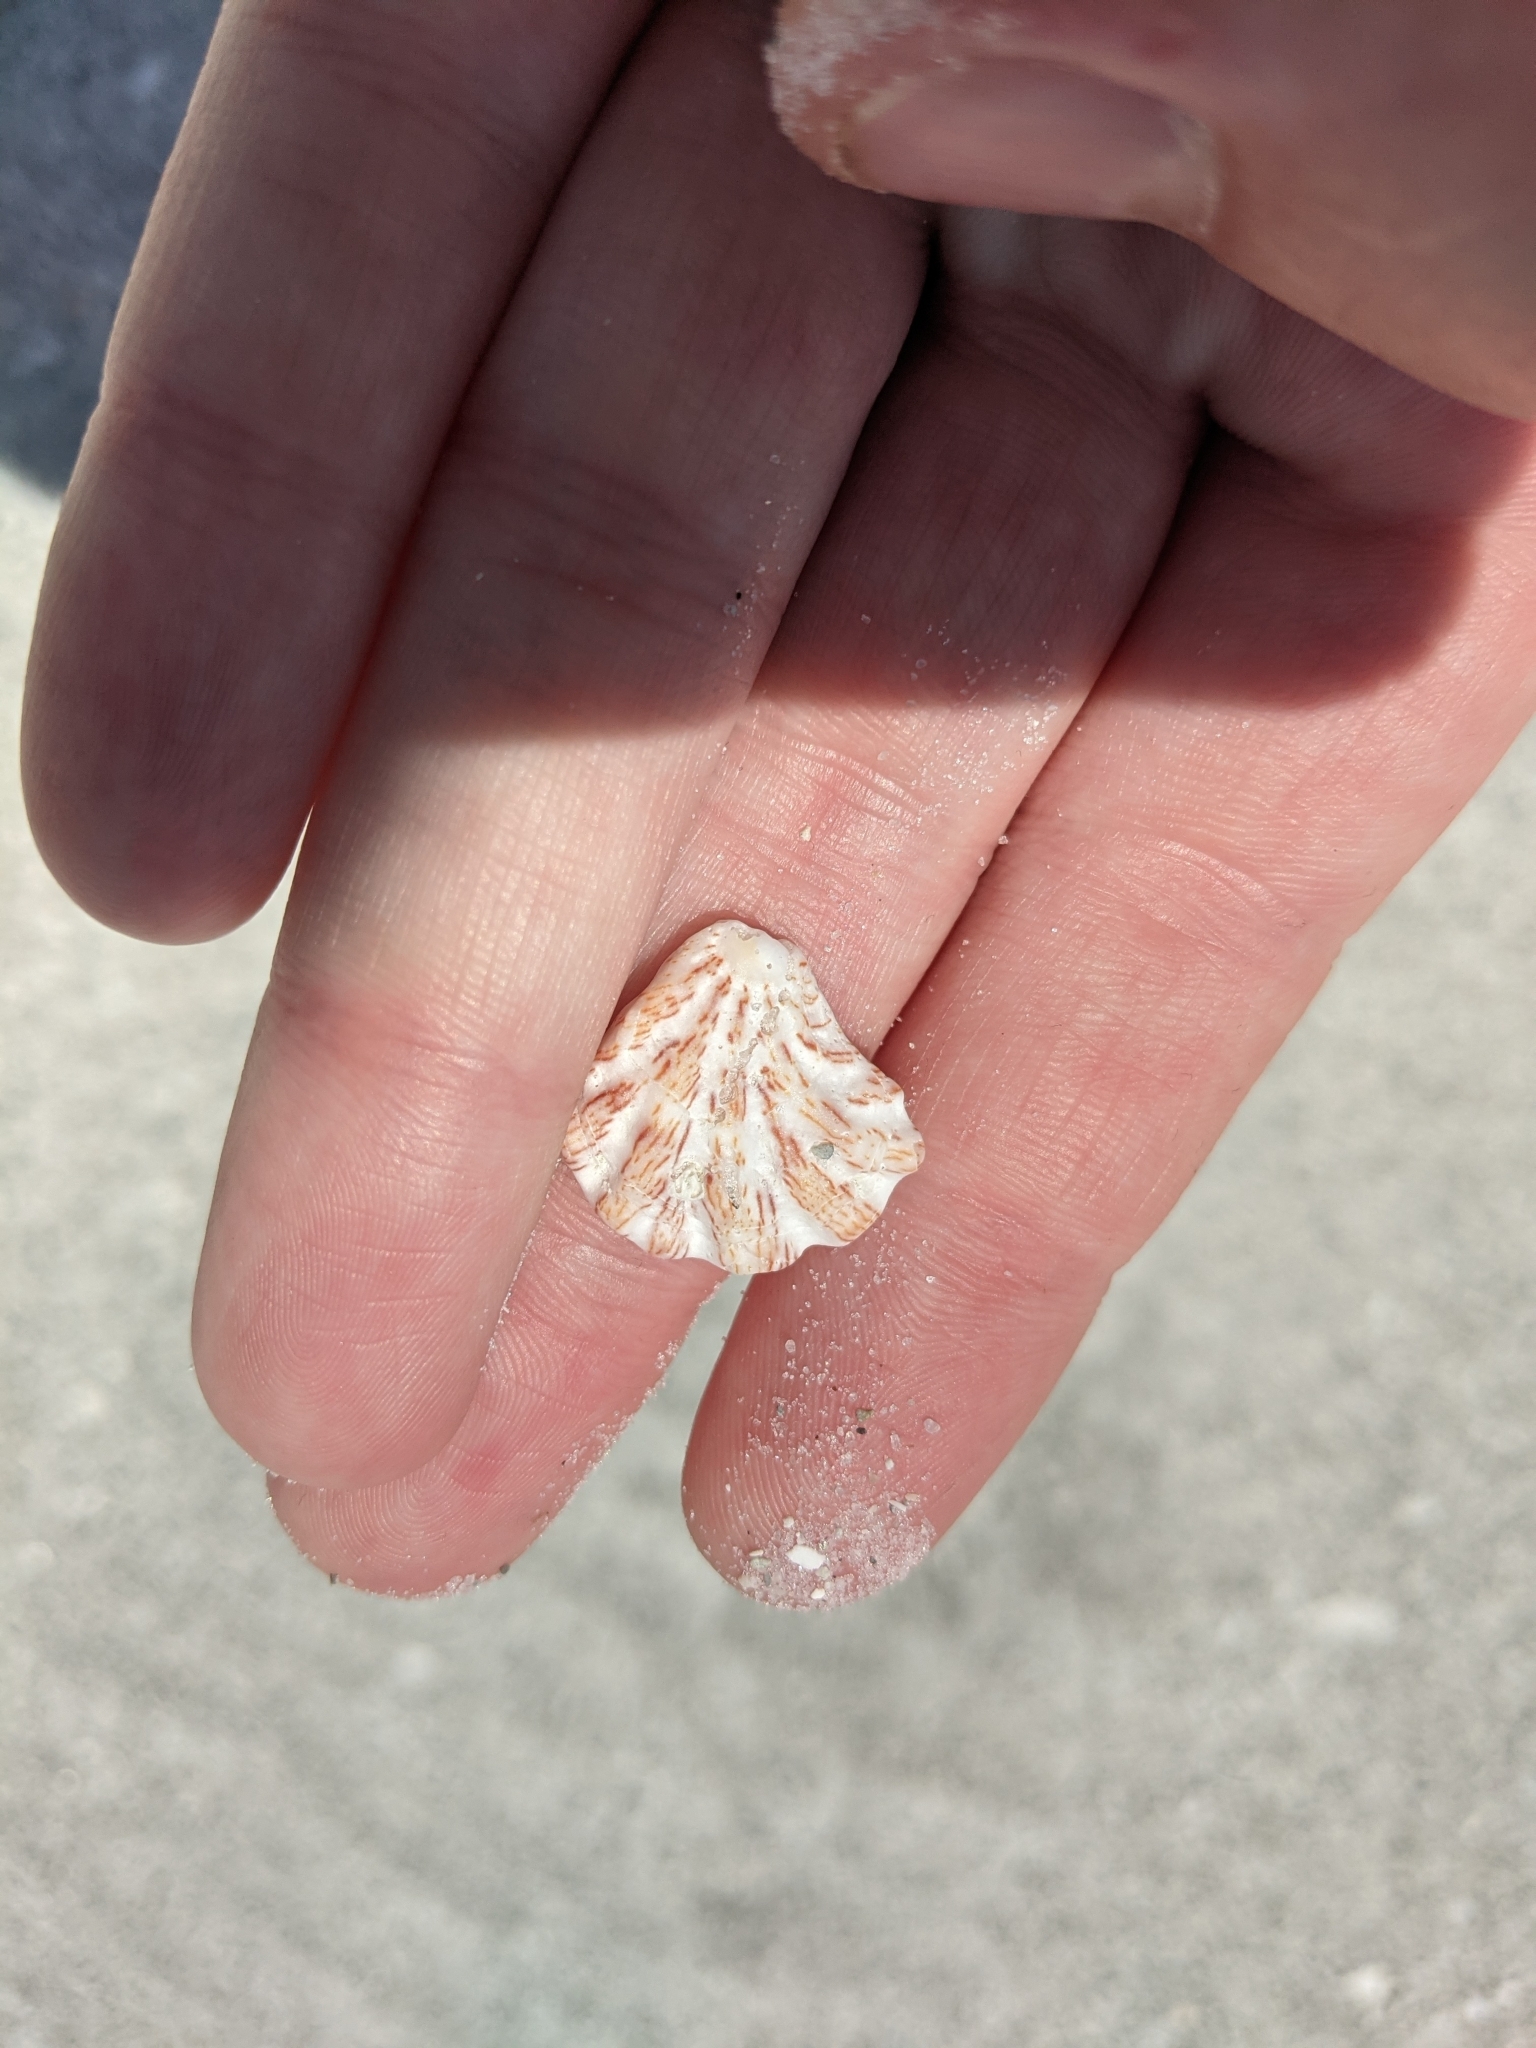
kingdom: Animalia
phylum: Mollusca
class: Bivalvia
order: Pectinida
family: Plicatulidae
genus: Plicatula
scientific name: Plicatula gibbosa
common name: Atlantic kitten's paw
